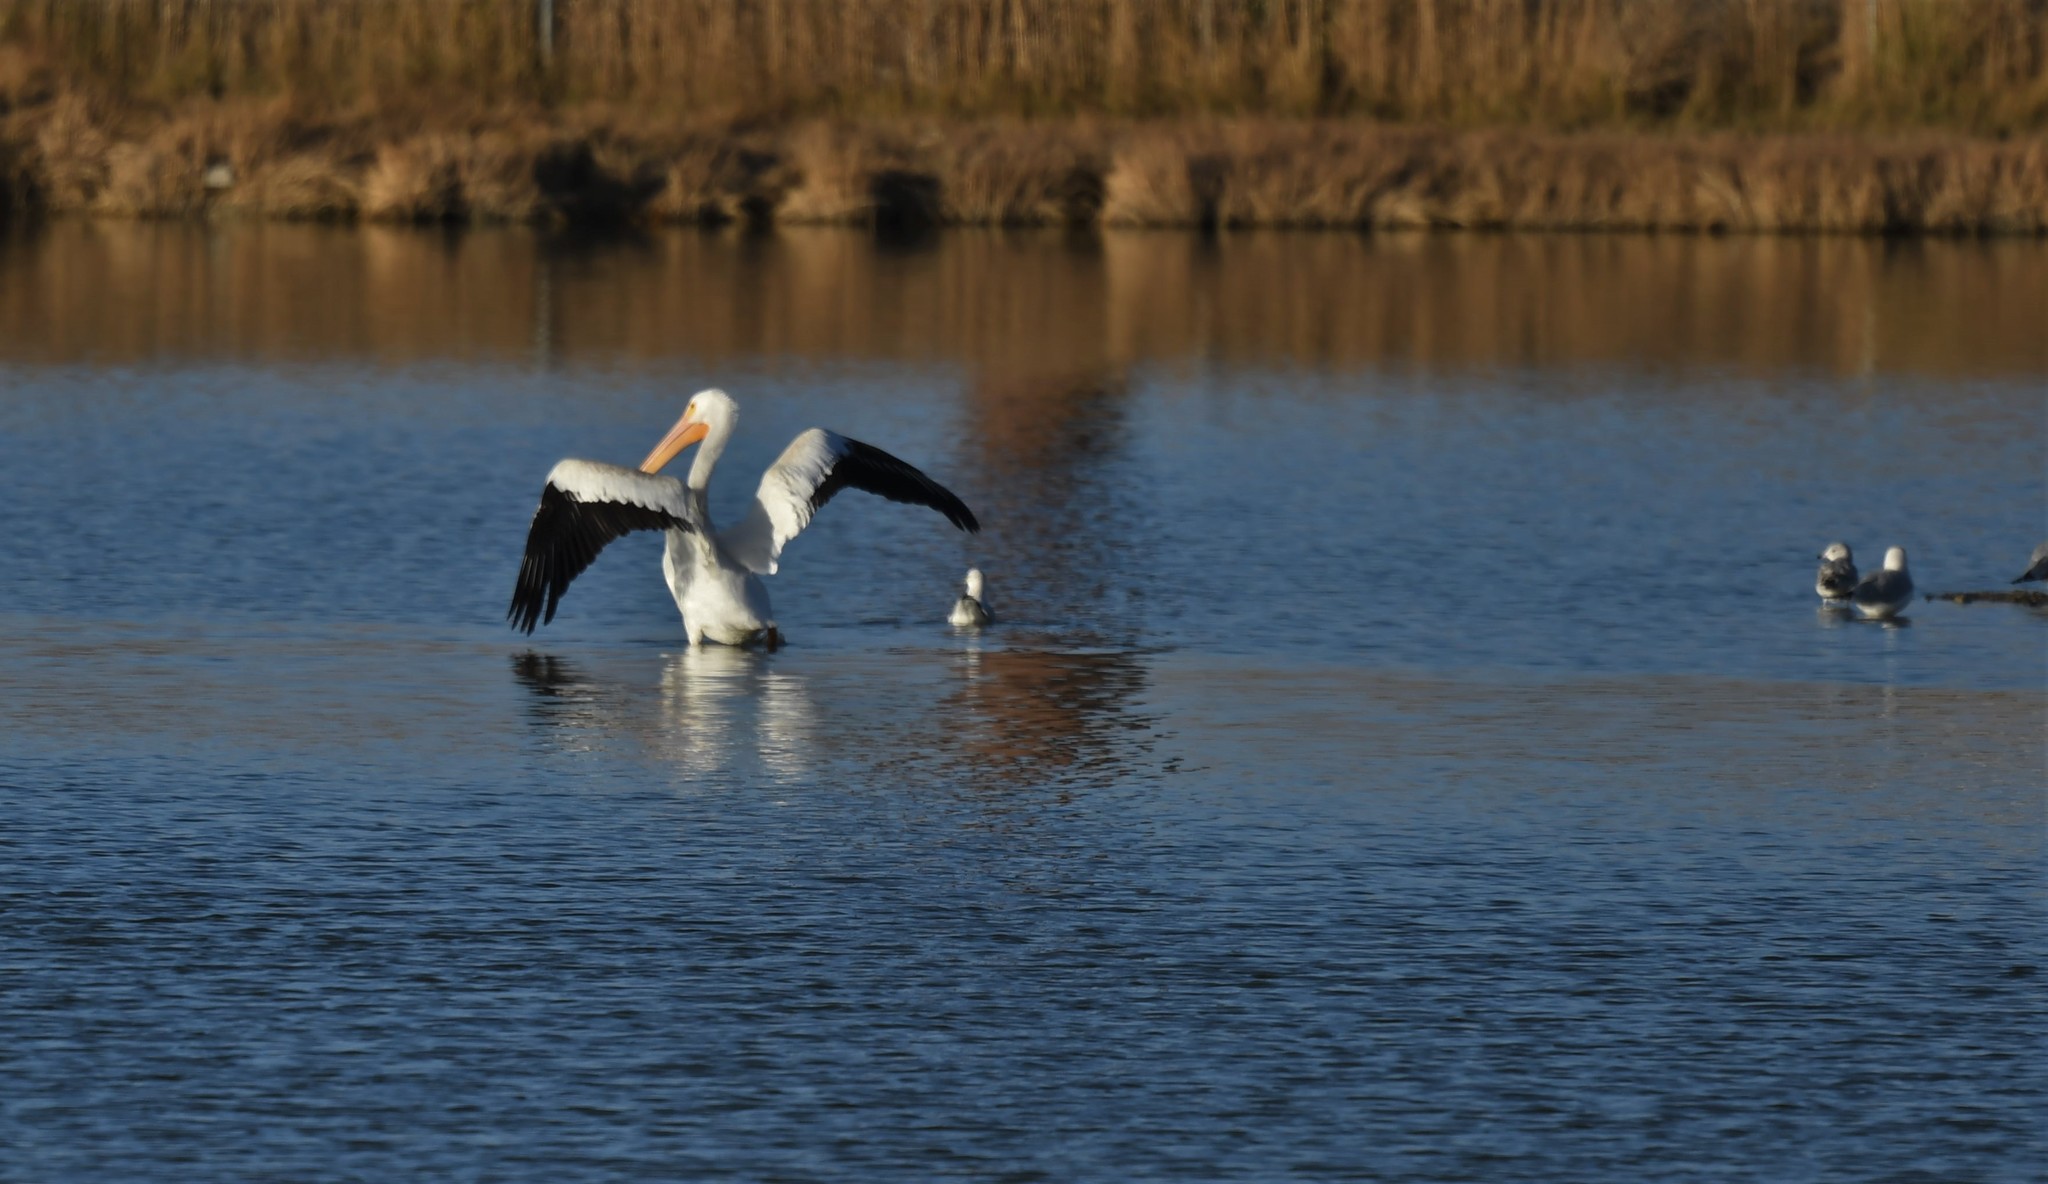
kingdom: Animalia
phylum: Chordata
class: Aves
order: Pelecaniformes
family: Pelecanidae
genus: Pelecanus
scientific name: Pelecanus erythrorhynchos
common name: American white pelican
